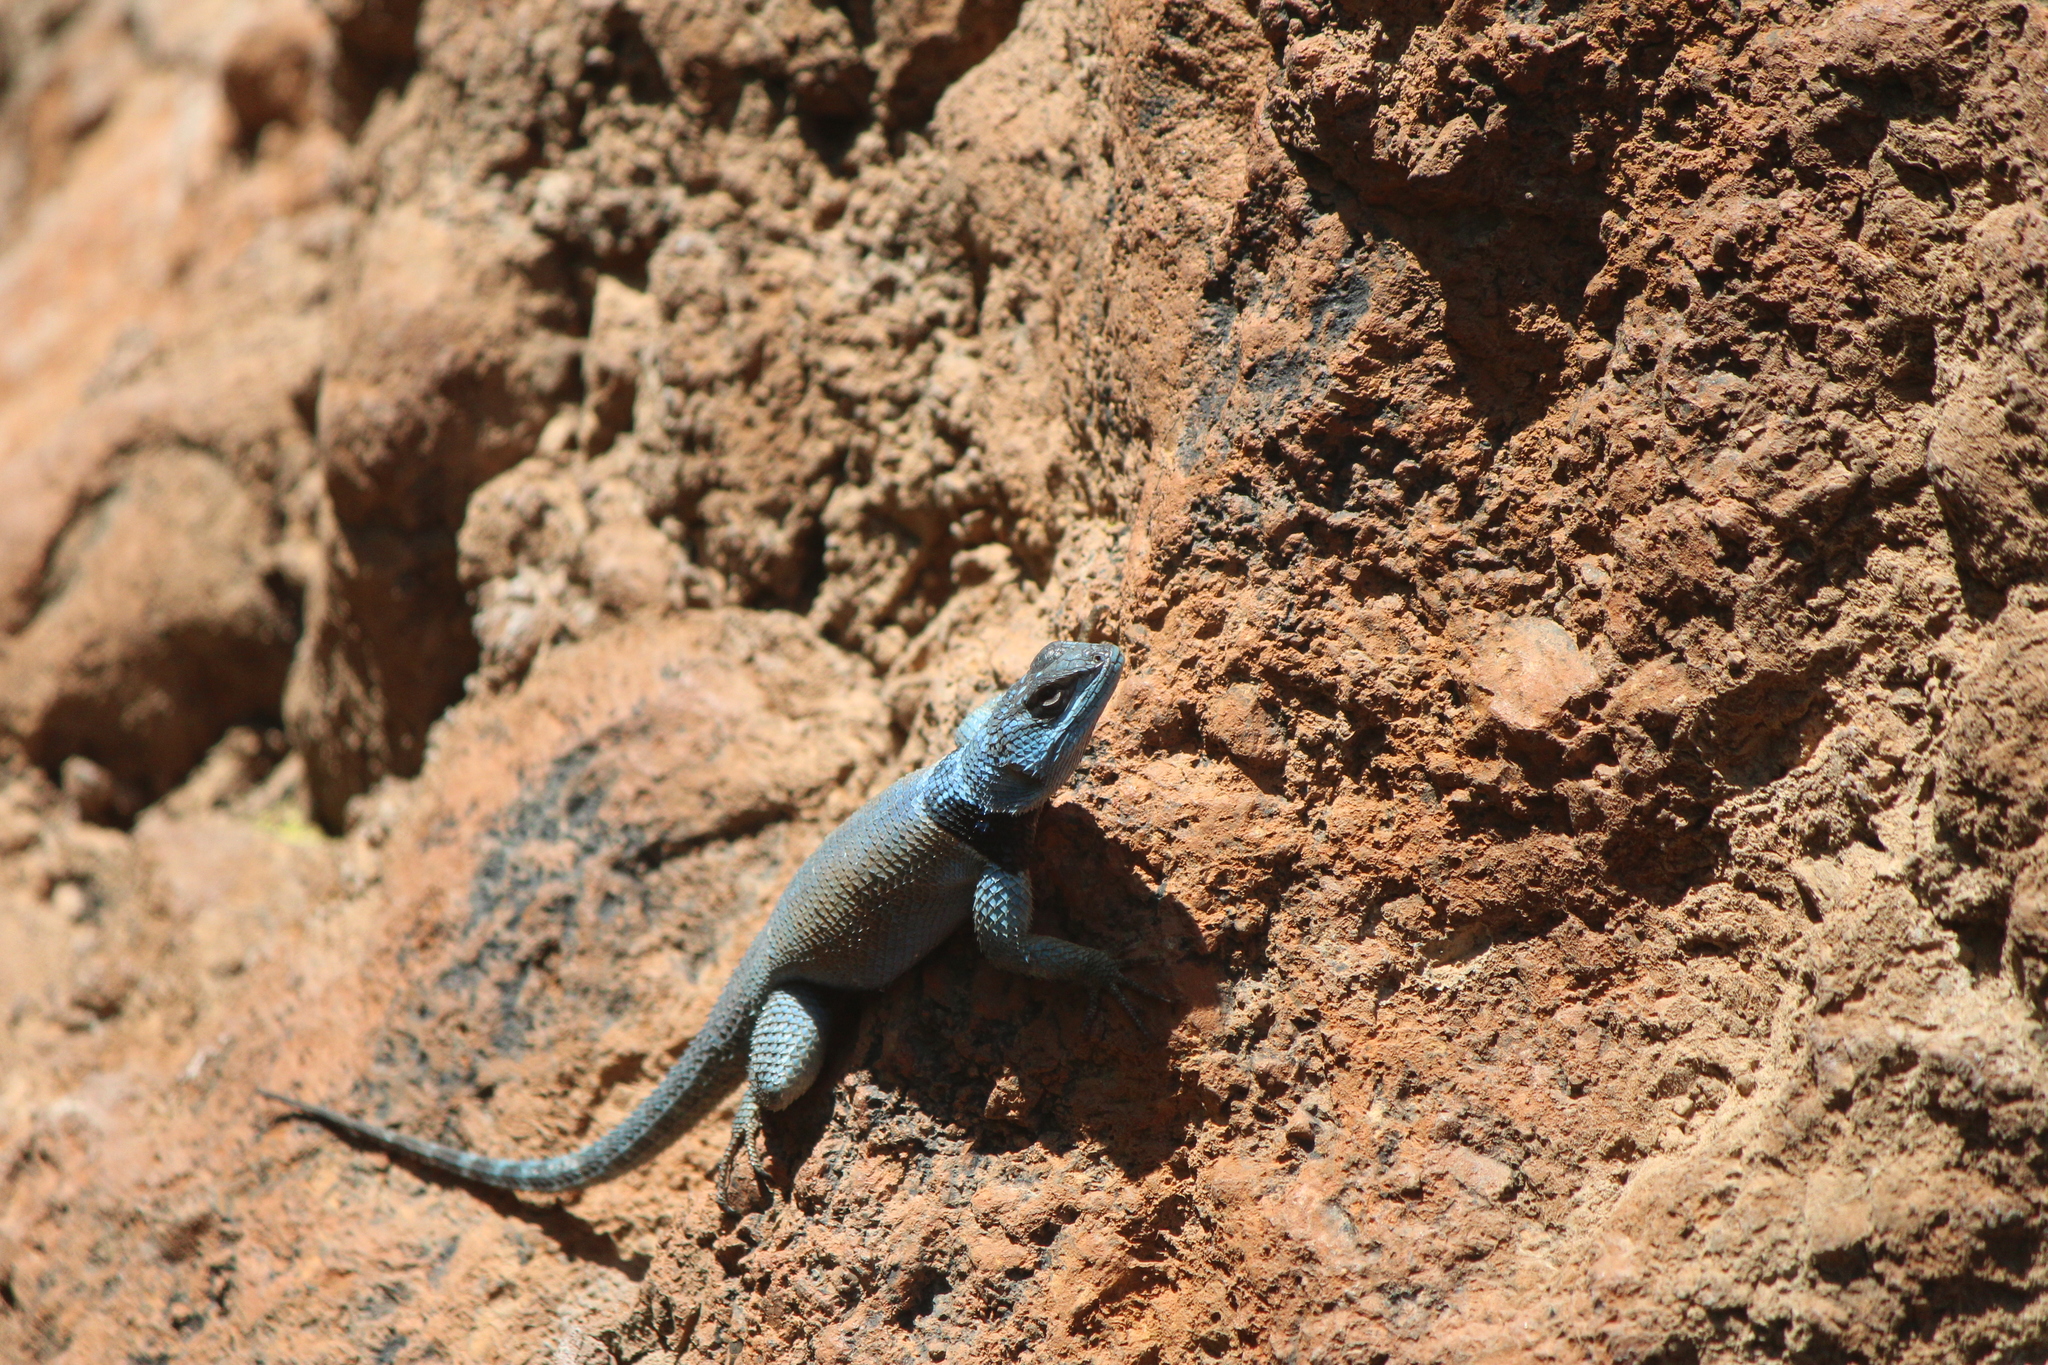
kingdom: Animalia
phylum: Chordata
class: Squamata
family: Phrynosomatidae
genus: Sceloporus
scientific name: Sceloporus minor
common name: Minor lizard
